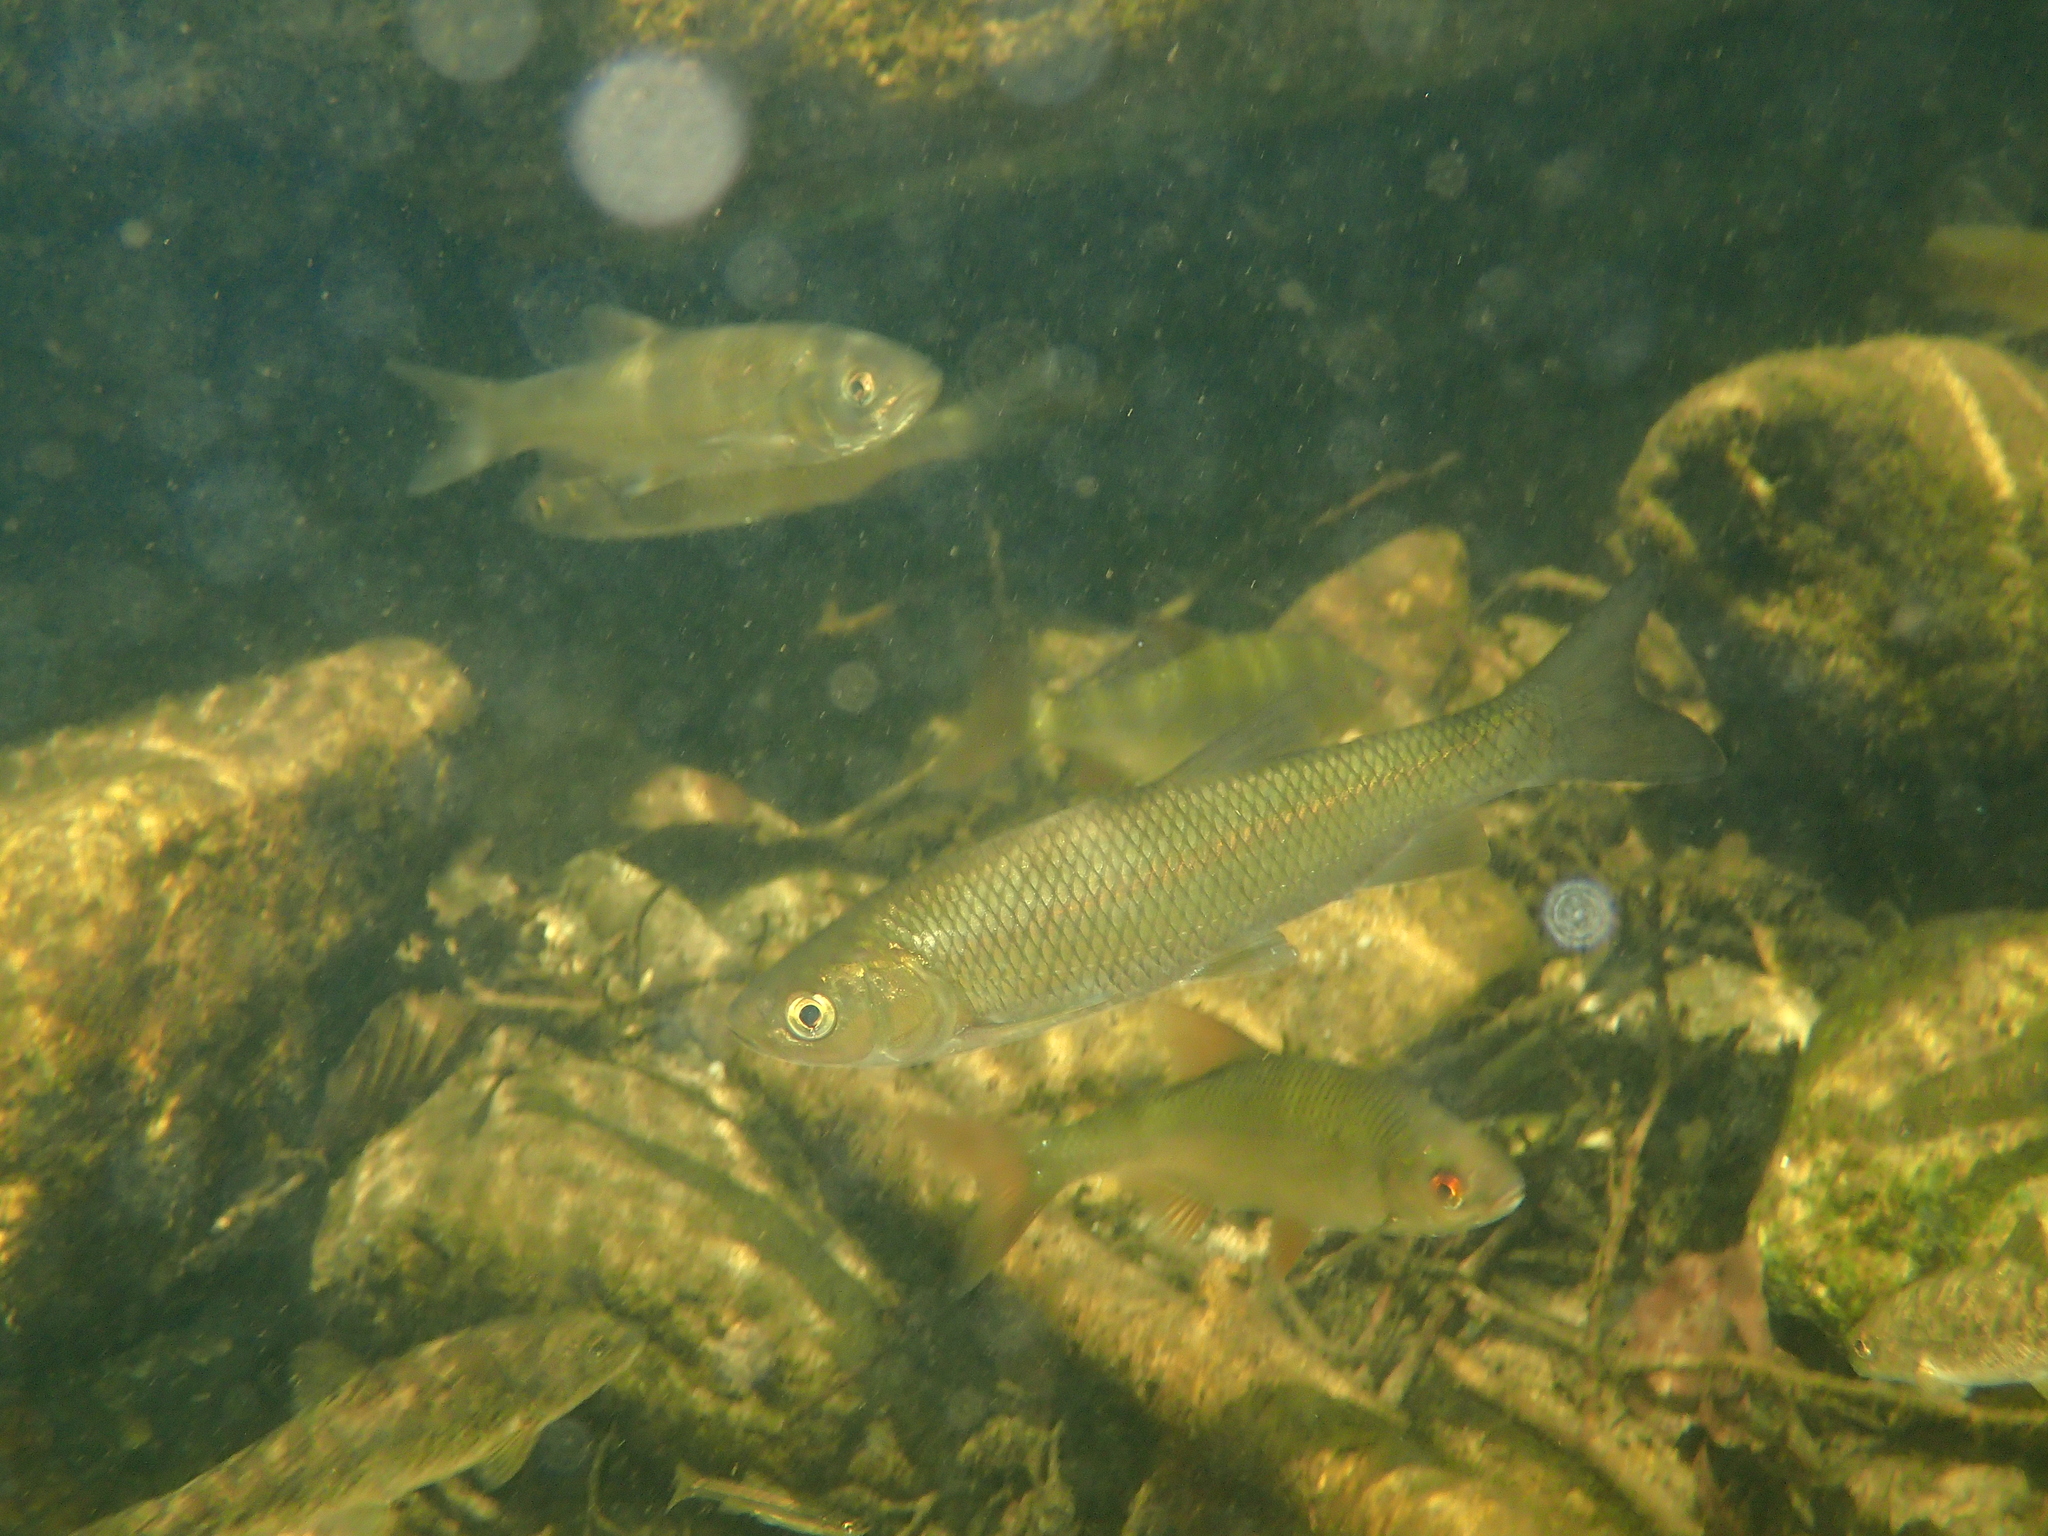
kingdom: Animalia
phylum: Chordata
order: Cypriniformes
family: Cyprinidae
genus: Squalius
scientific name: Squalius laietanus
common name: Catalan chub
